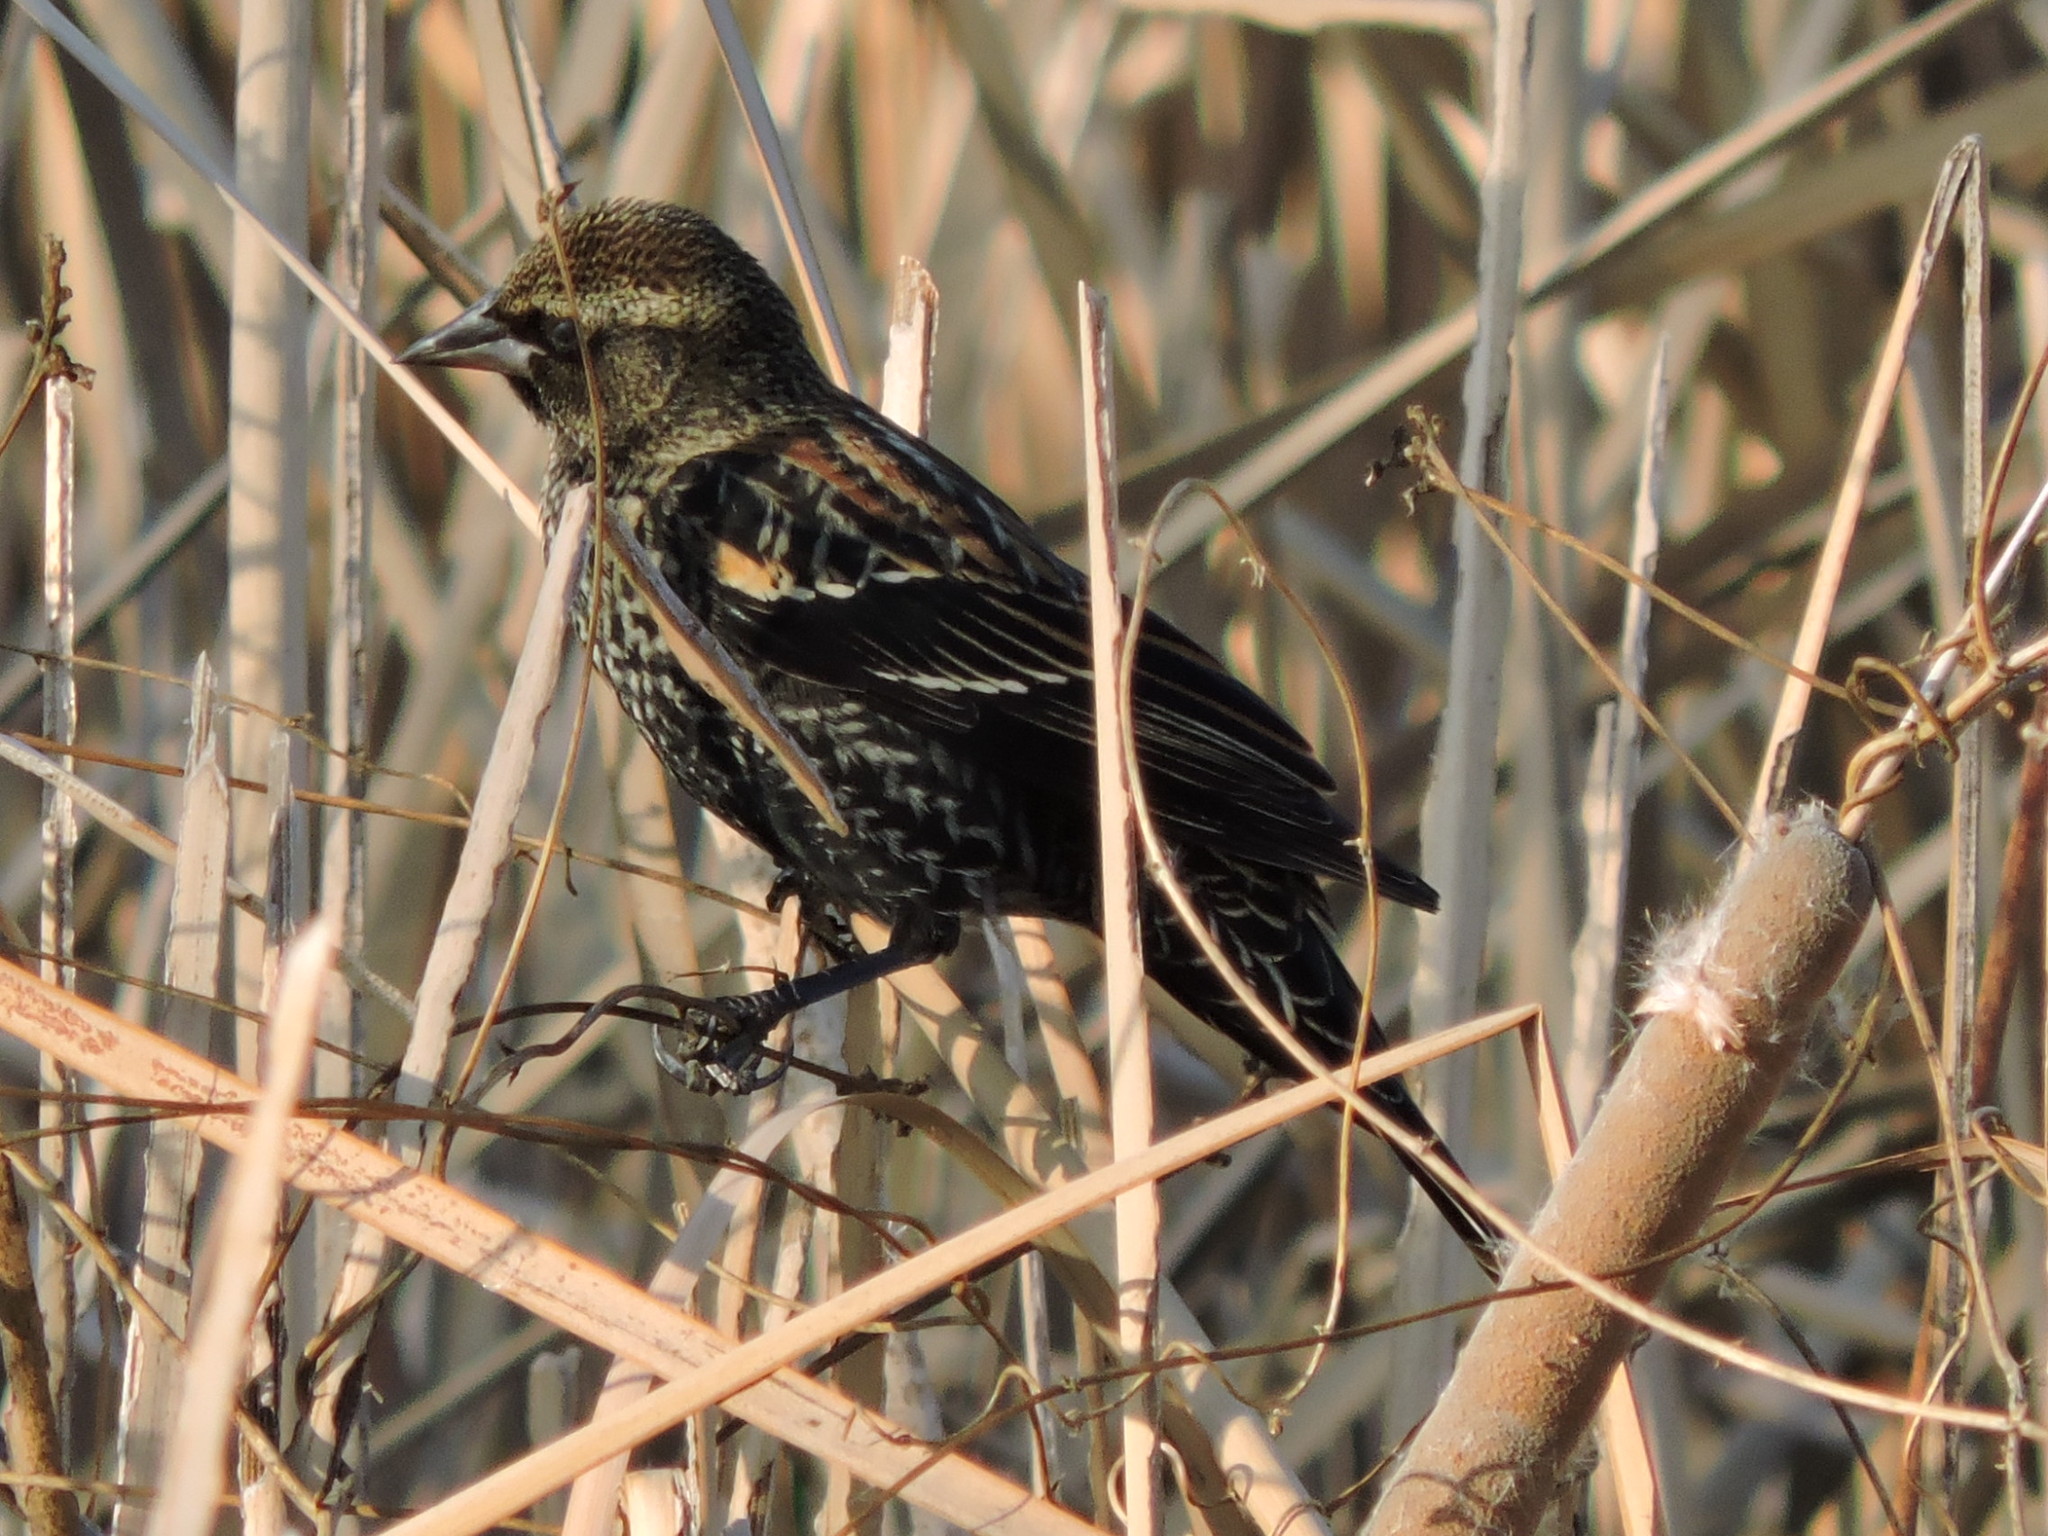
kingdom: Animalia
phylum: Chordata
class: Aves
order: Passeriformes
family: Icteridae
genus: Agelaius
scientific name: Agelaius phoeniceus
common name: Red-winged blackbird
